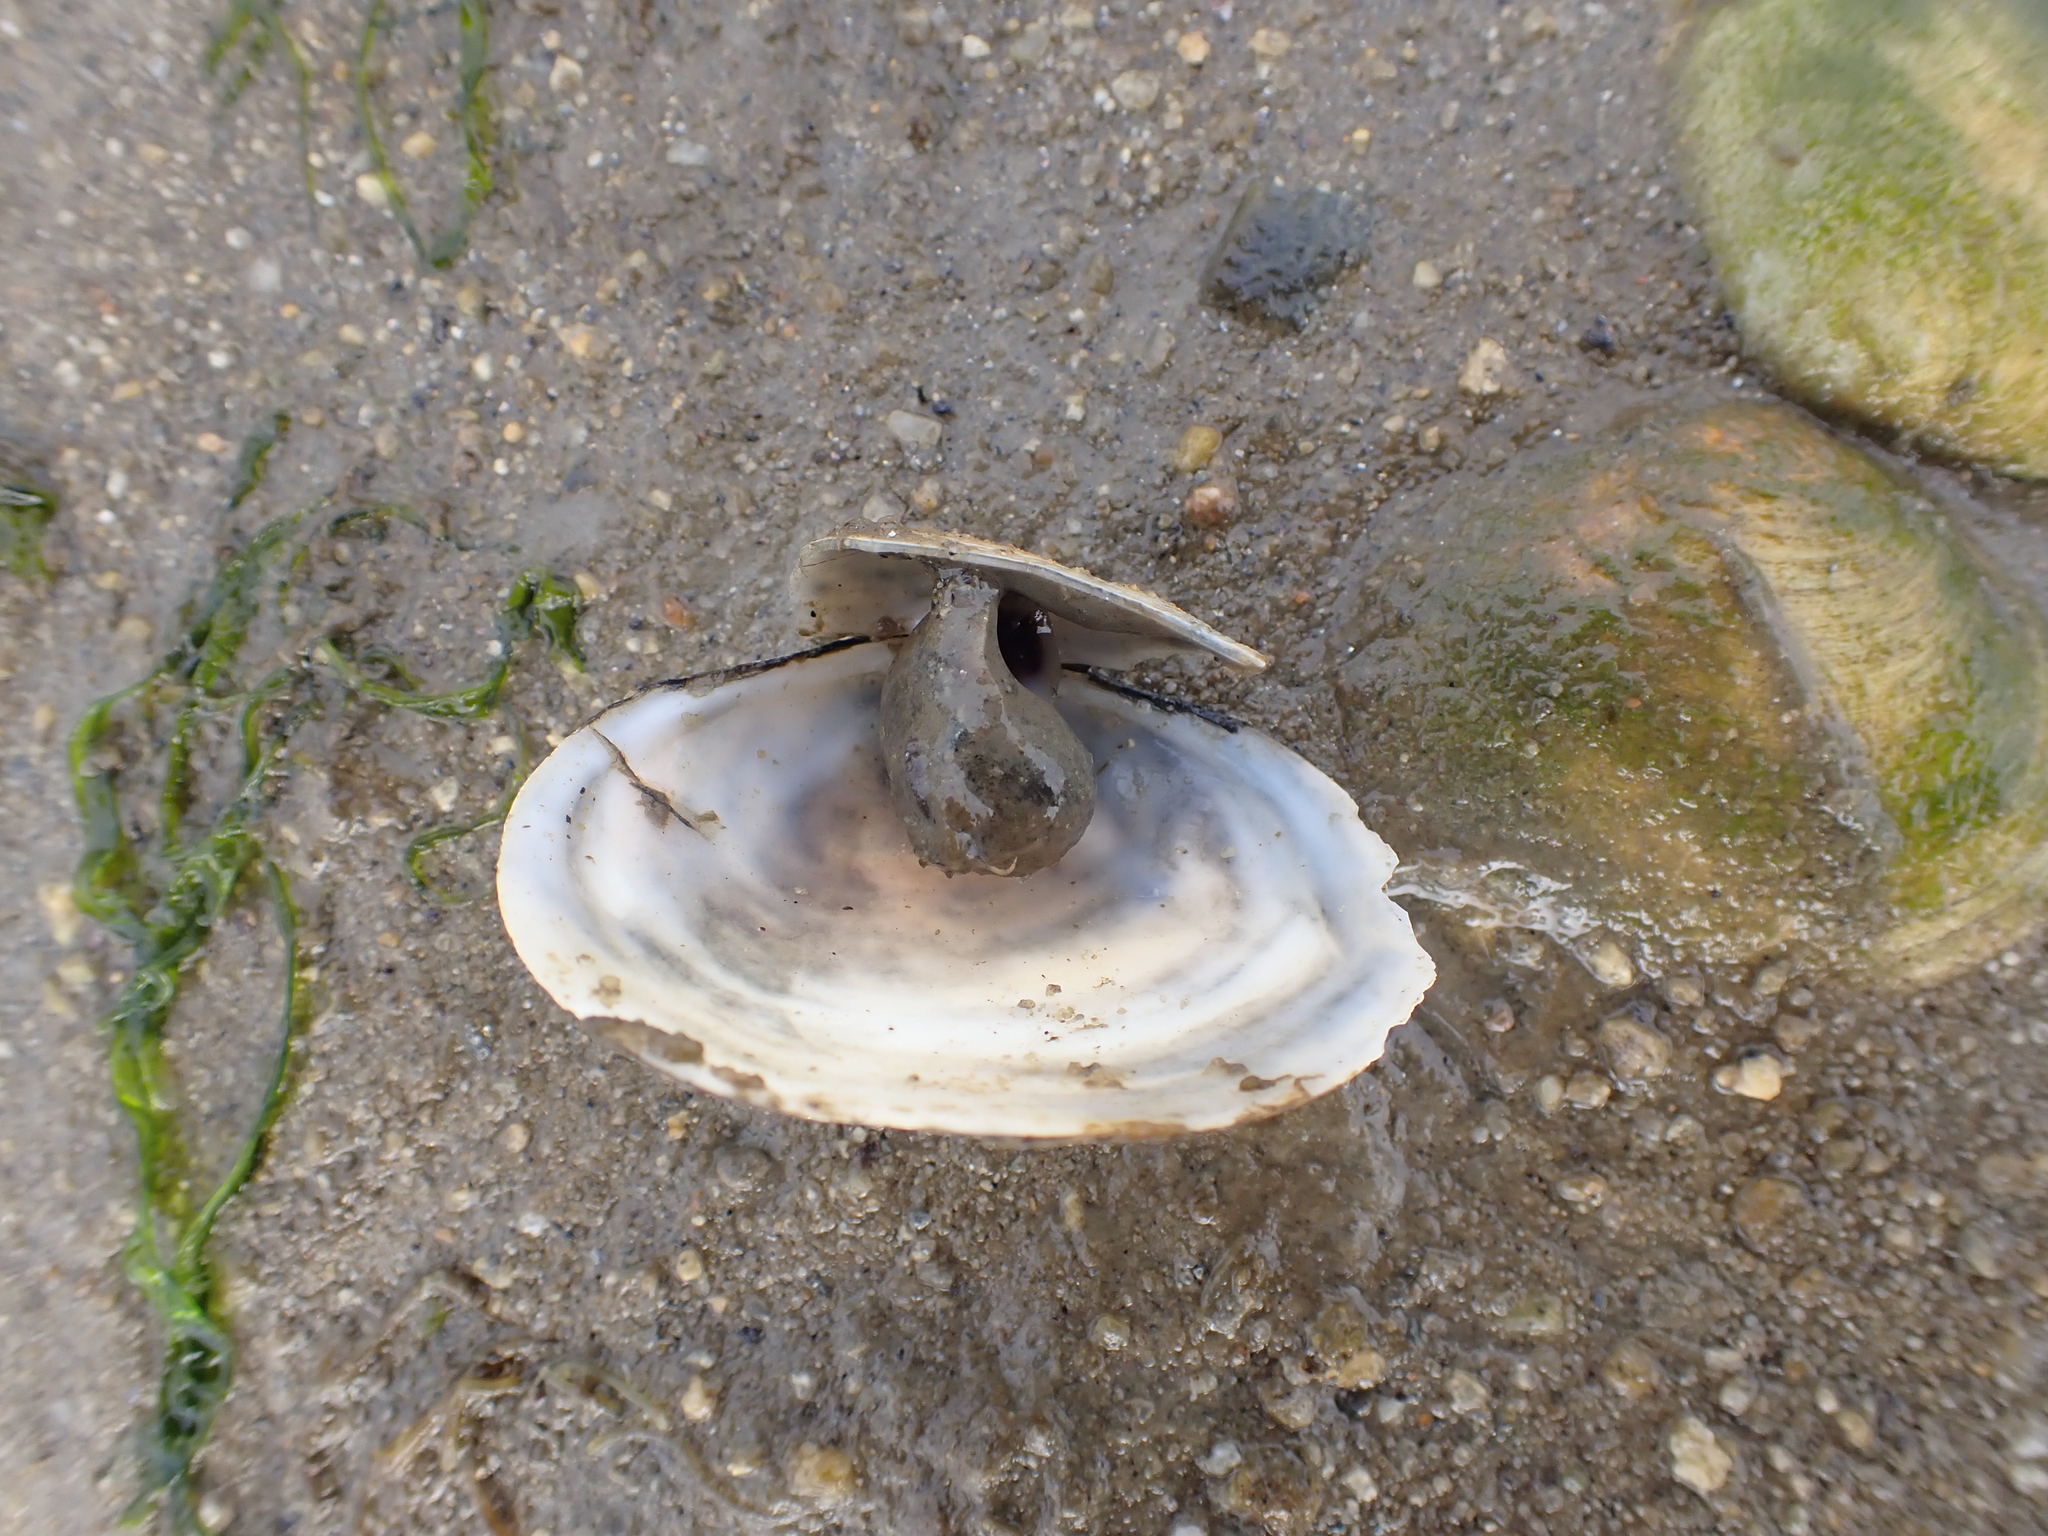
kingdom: Animalia
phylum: Mollusca
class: Bivalvia
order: Cardiida
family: Semelidae
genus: Scrobicularia
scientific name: Scrobicularia plana
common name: Peppery furrow shell
